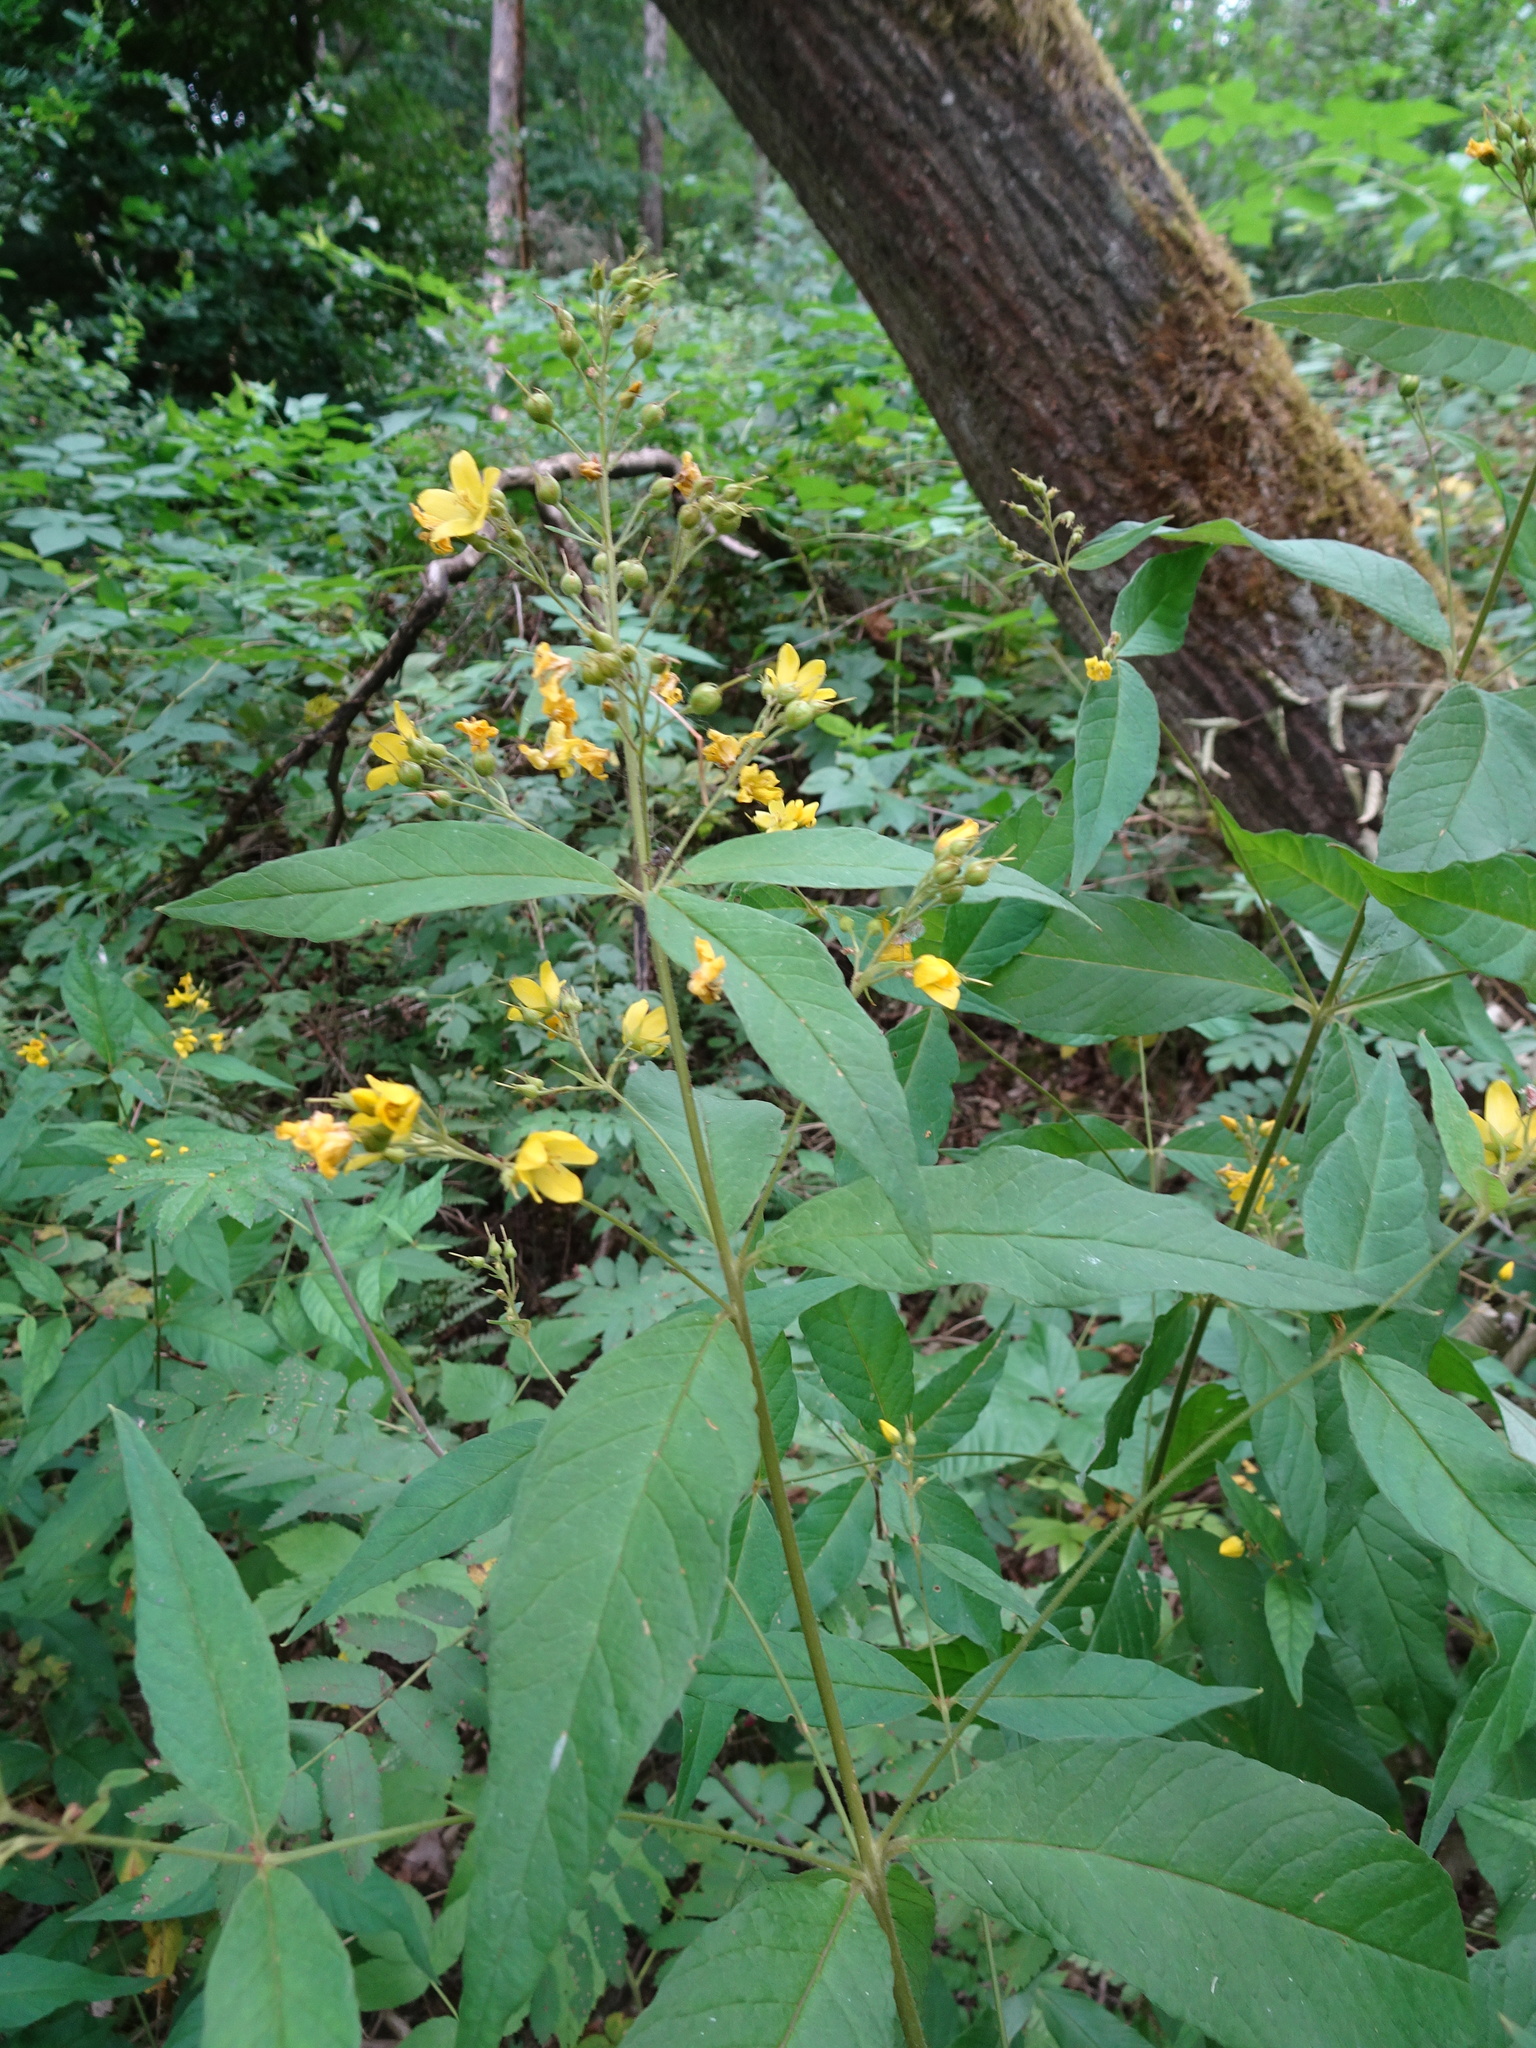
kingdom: Plantae
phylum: Tracheophyta
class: Magnoliopsida
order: Ericales
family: Primulaceae
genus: Lysimachia
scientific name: Lysimachia vulgaris
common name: Yellow loosestrife
